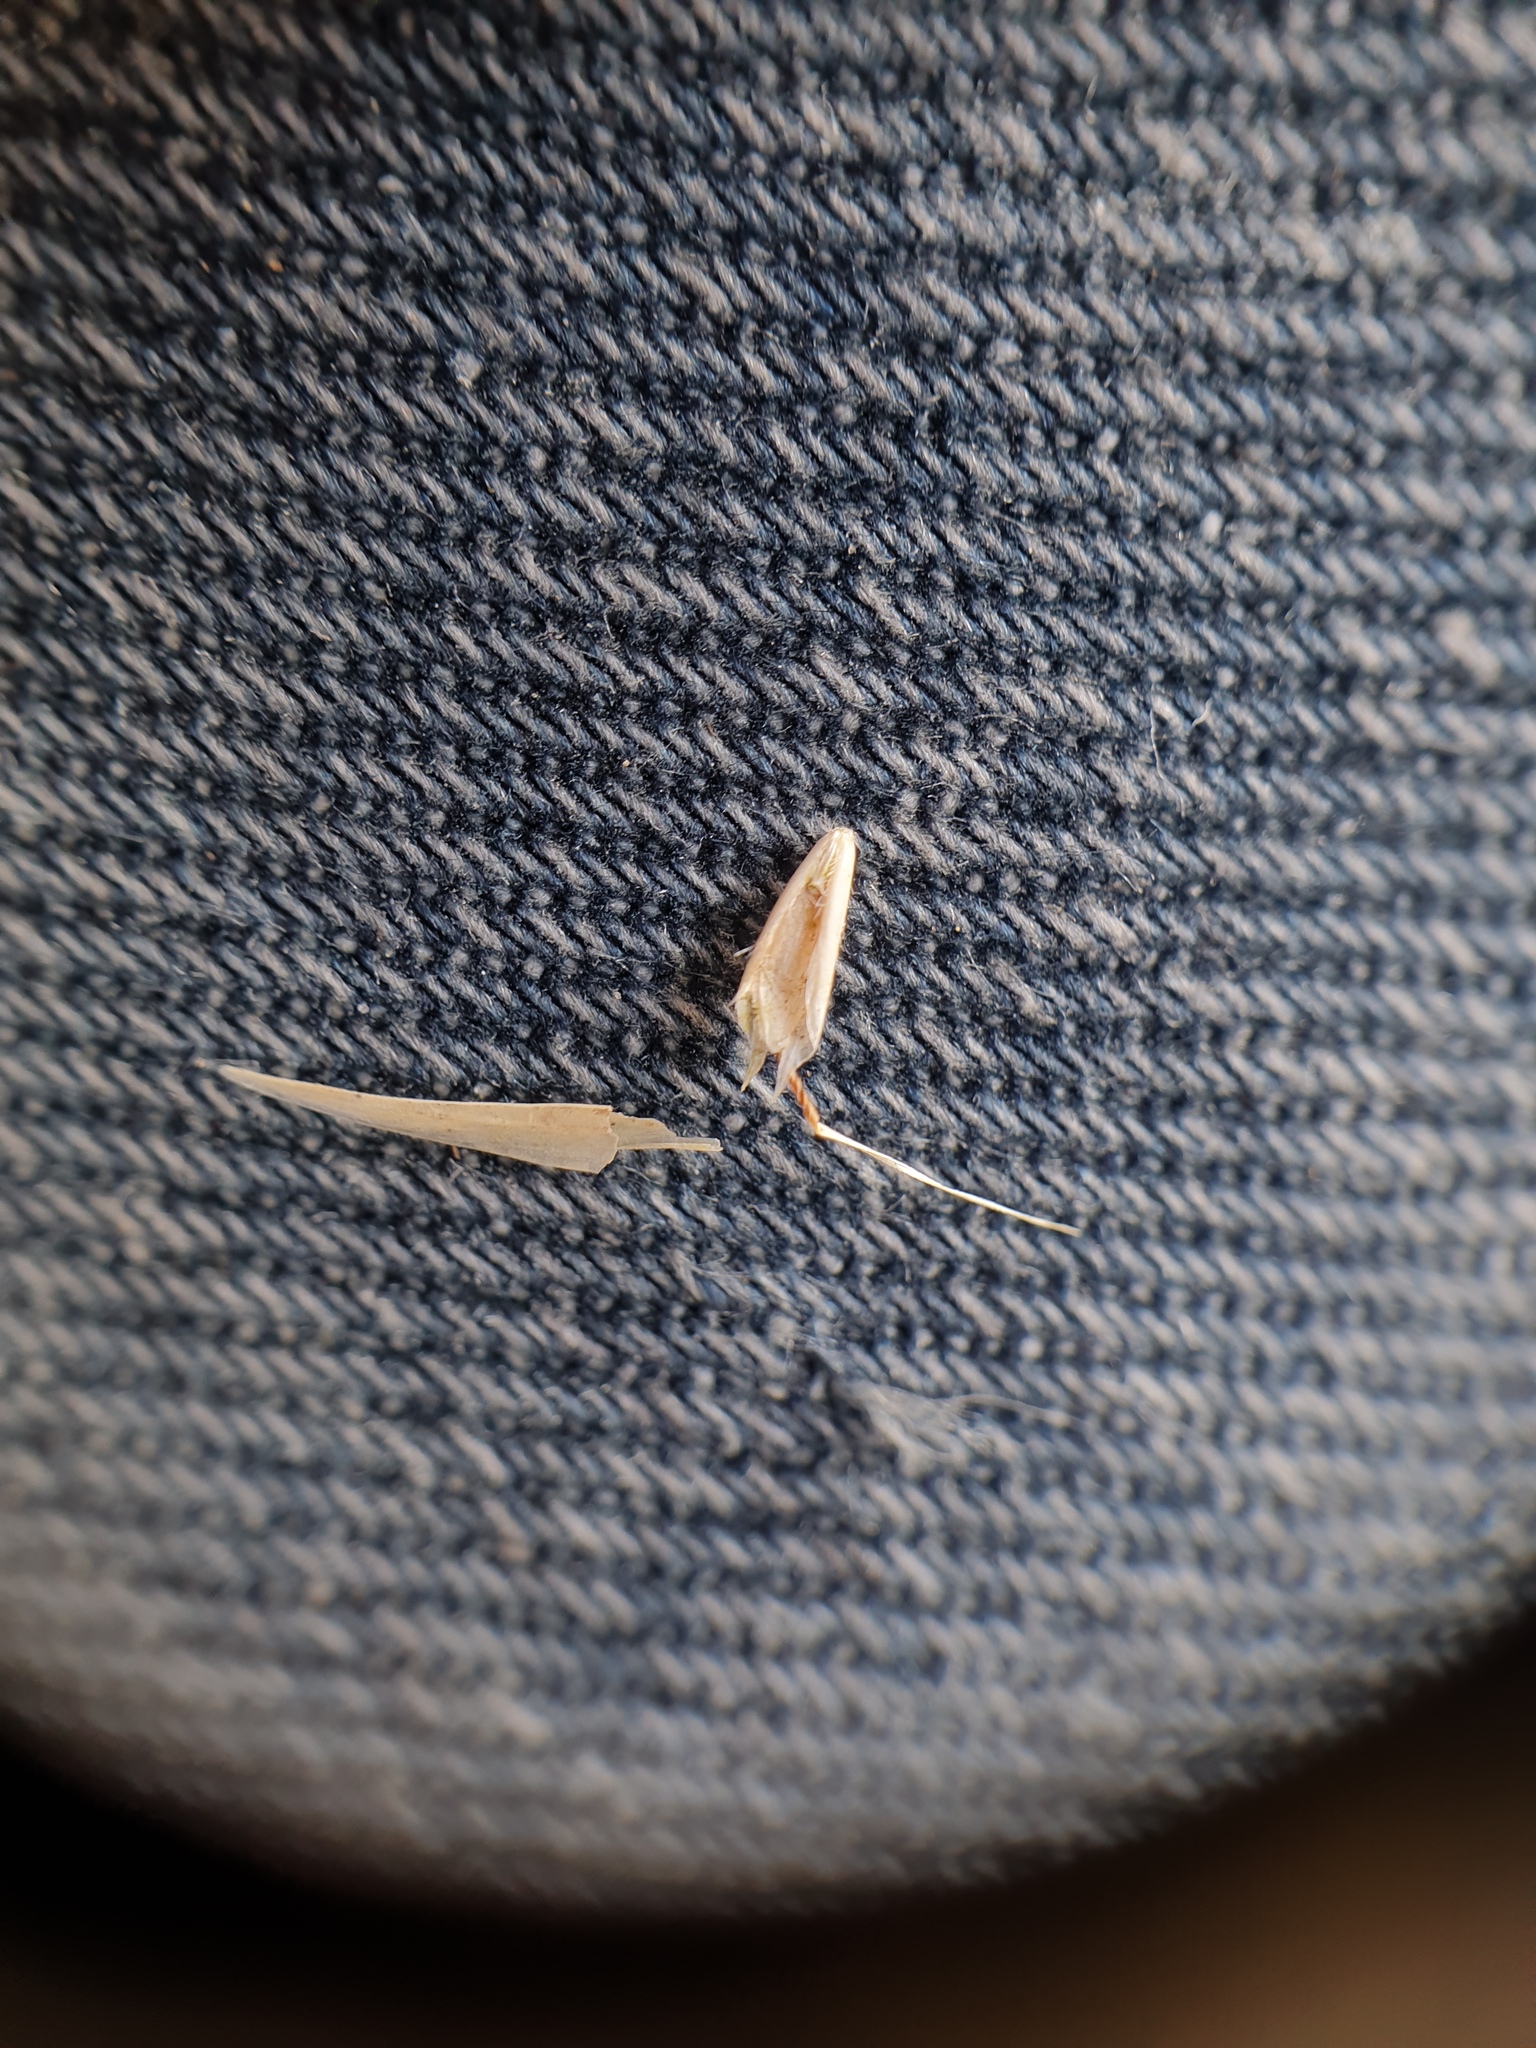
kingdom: Plantae
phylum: Tracheophyta
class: Liliopsida
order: Poales
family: Poaceae
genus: Danthonia
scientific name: Danthonia spicata
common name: Common wild oatgrass
